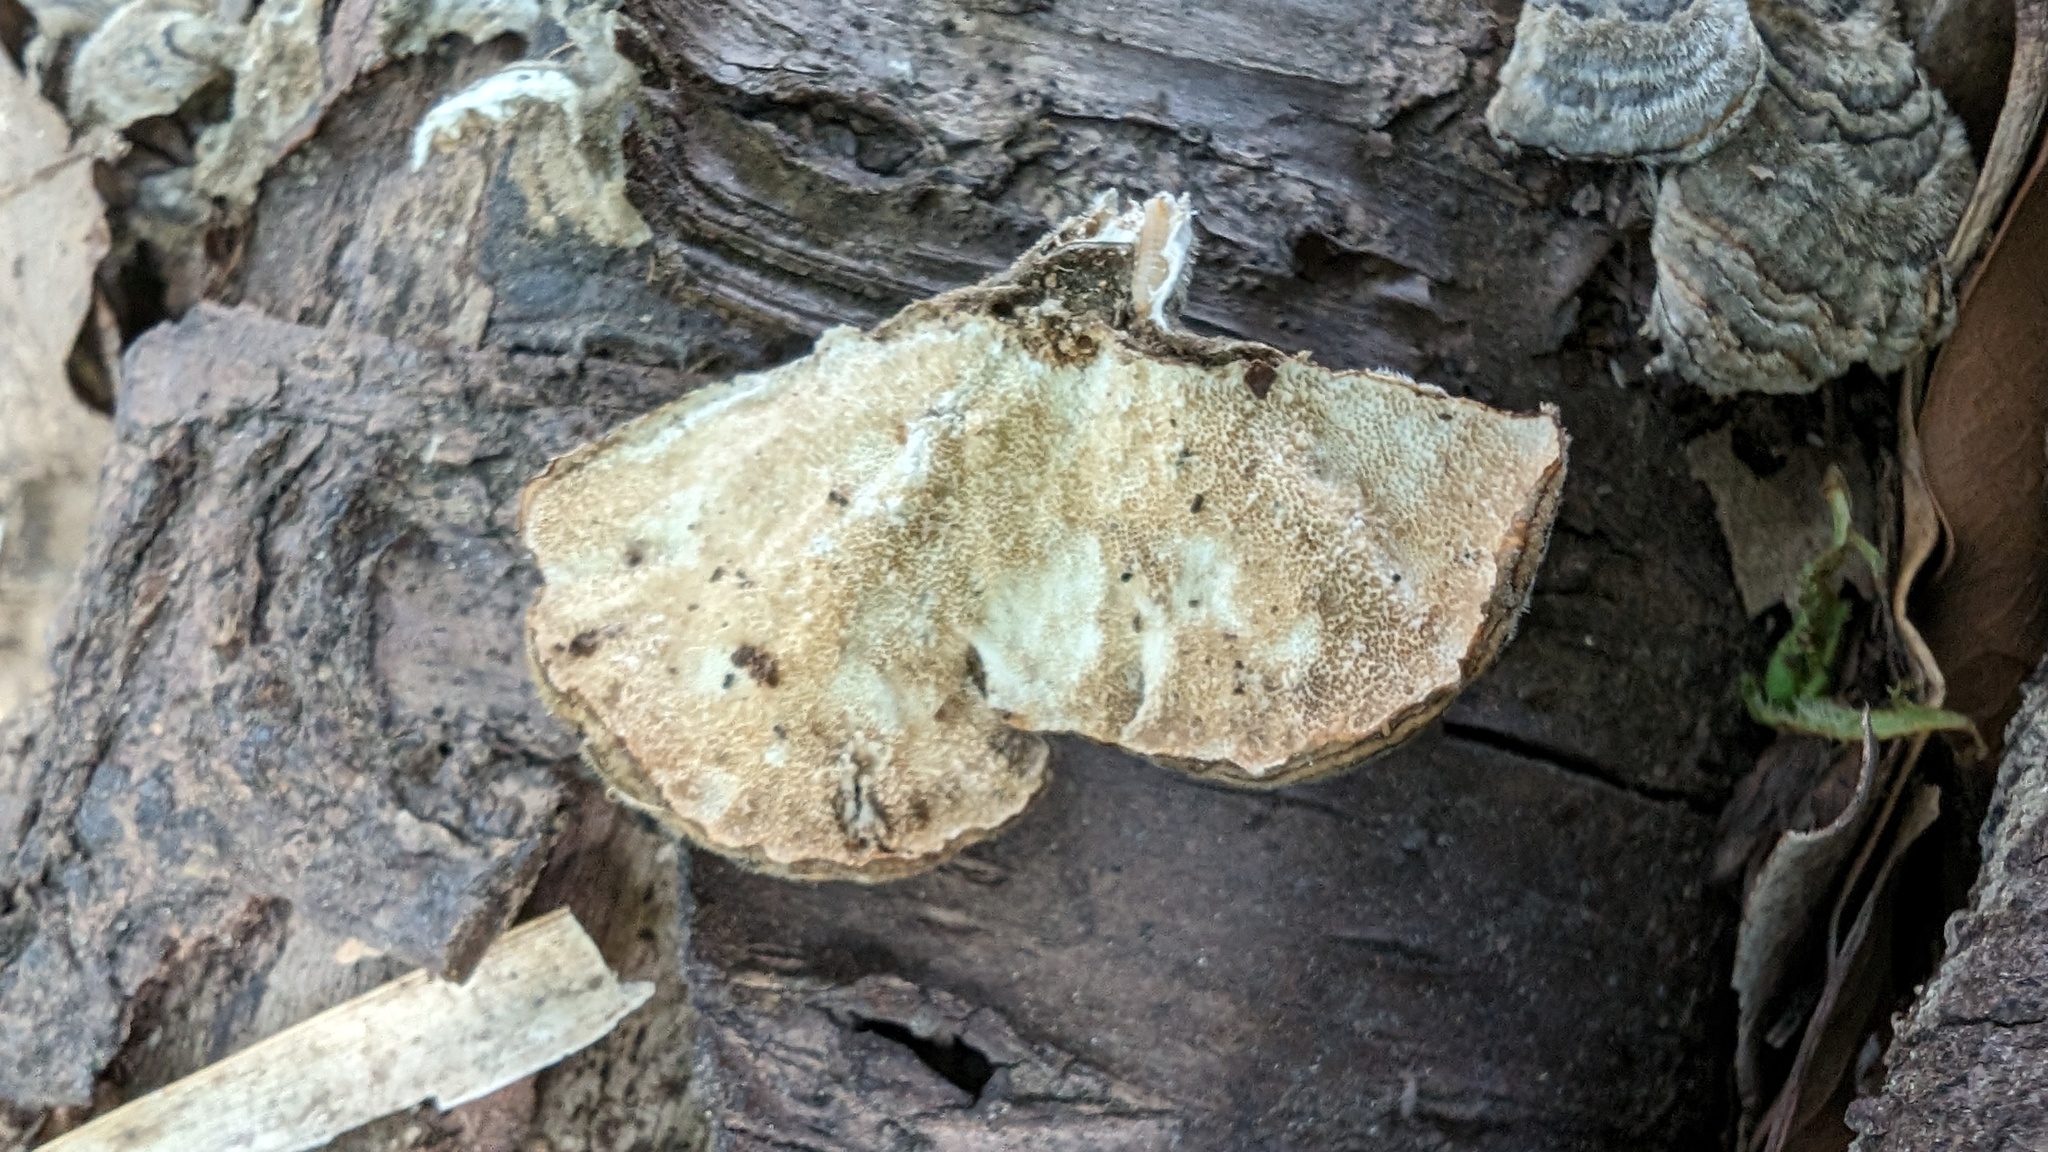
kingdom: Fungi
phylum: Basidiomycota
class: Agaricomycetes
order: Polyporales
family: Polyporaceae
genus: Trametes
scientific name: Trametes versicolor
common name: Turkeytail
